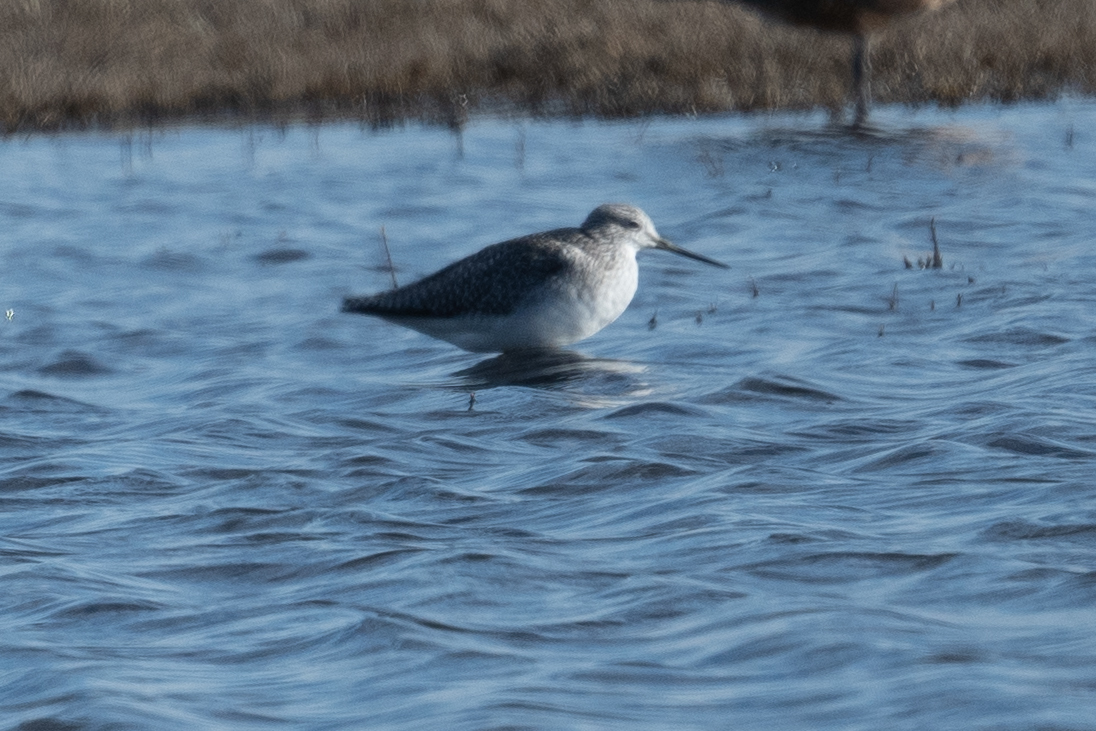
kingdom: Animalia
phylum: Chordata
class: Aves
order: Charadriiformes
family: Scolopacidae
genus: Tringa
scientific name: Tringa melanoleuca
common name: Greater yellowlegs
